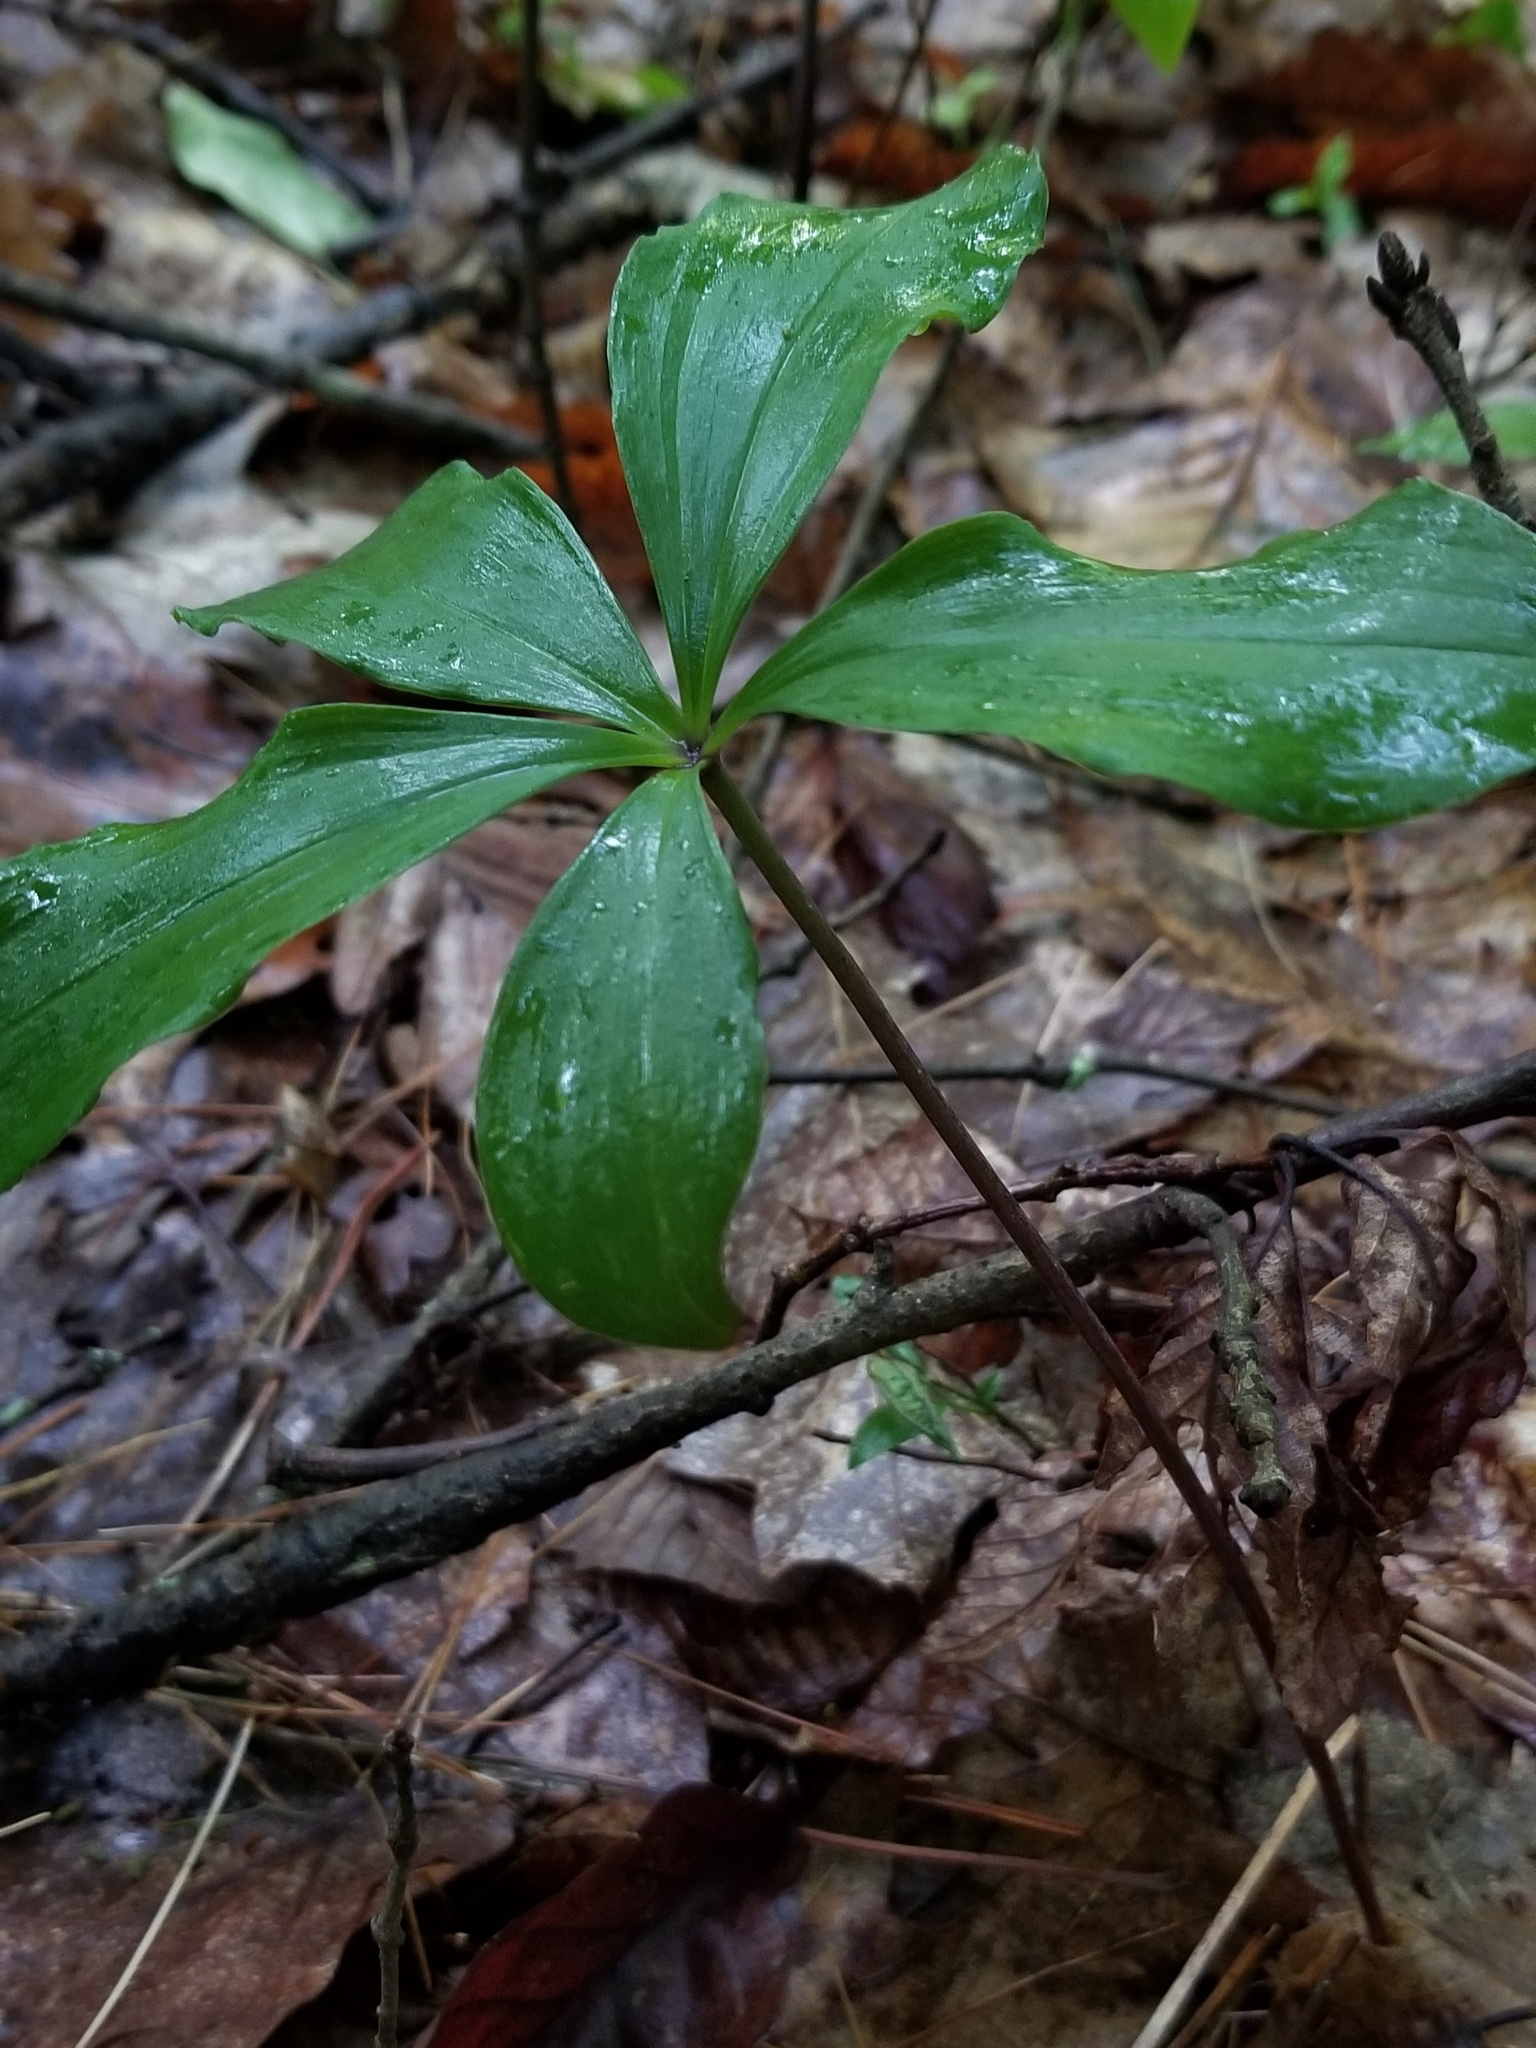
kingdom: Plantae
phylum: Tracheophyta
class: Liliopsida
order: Asparagales
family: Orchidaceae
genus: Isotria
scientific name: Isotria verticillata
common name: Large whorled pogonia
